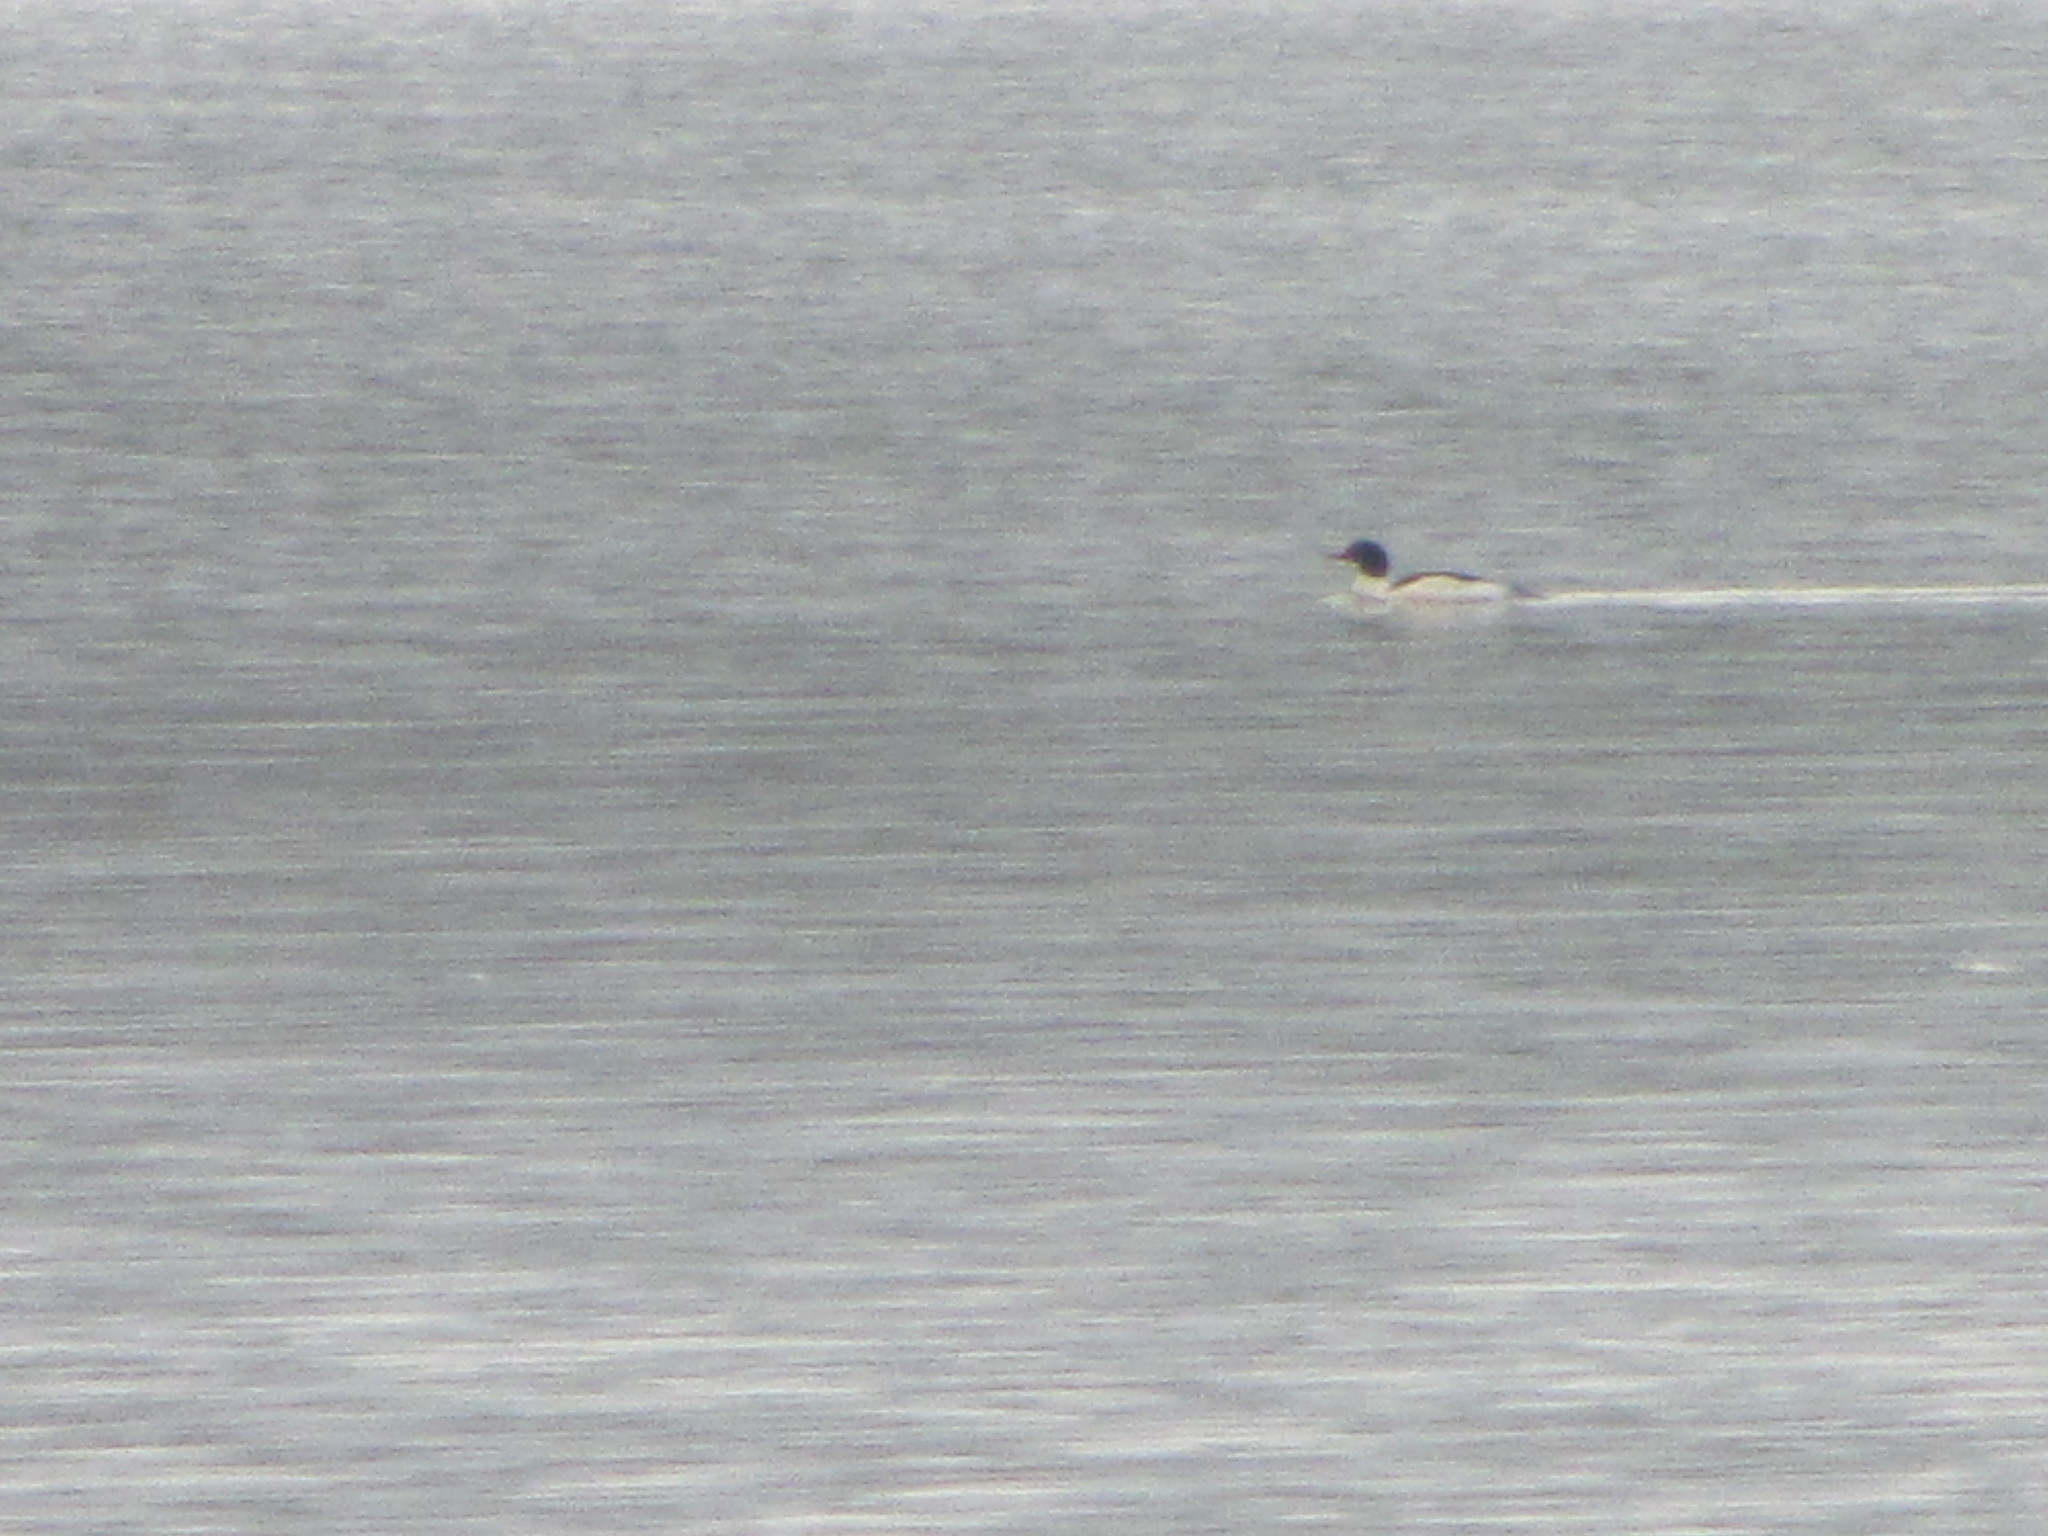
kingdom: Animalia
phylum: Chordata
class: Aves
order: Anseriformes
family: Anatidae
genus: Mergus
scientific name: Mergus merganser
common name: Common merganser
